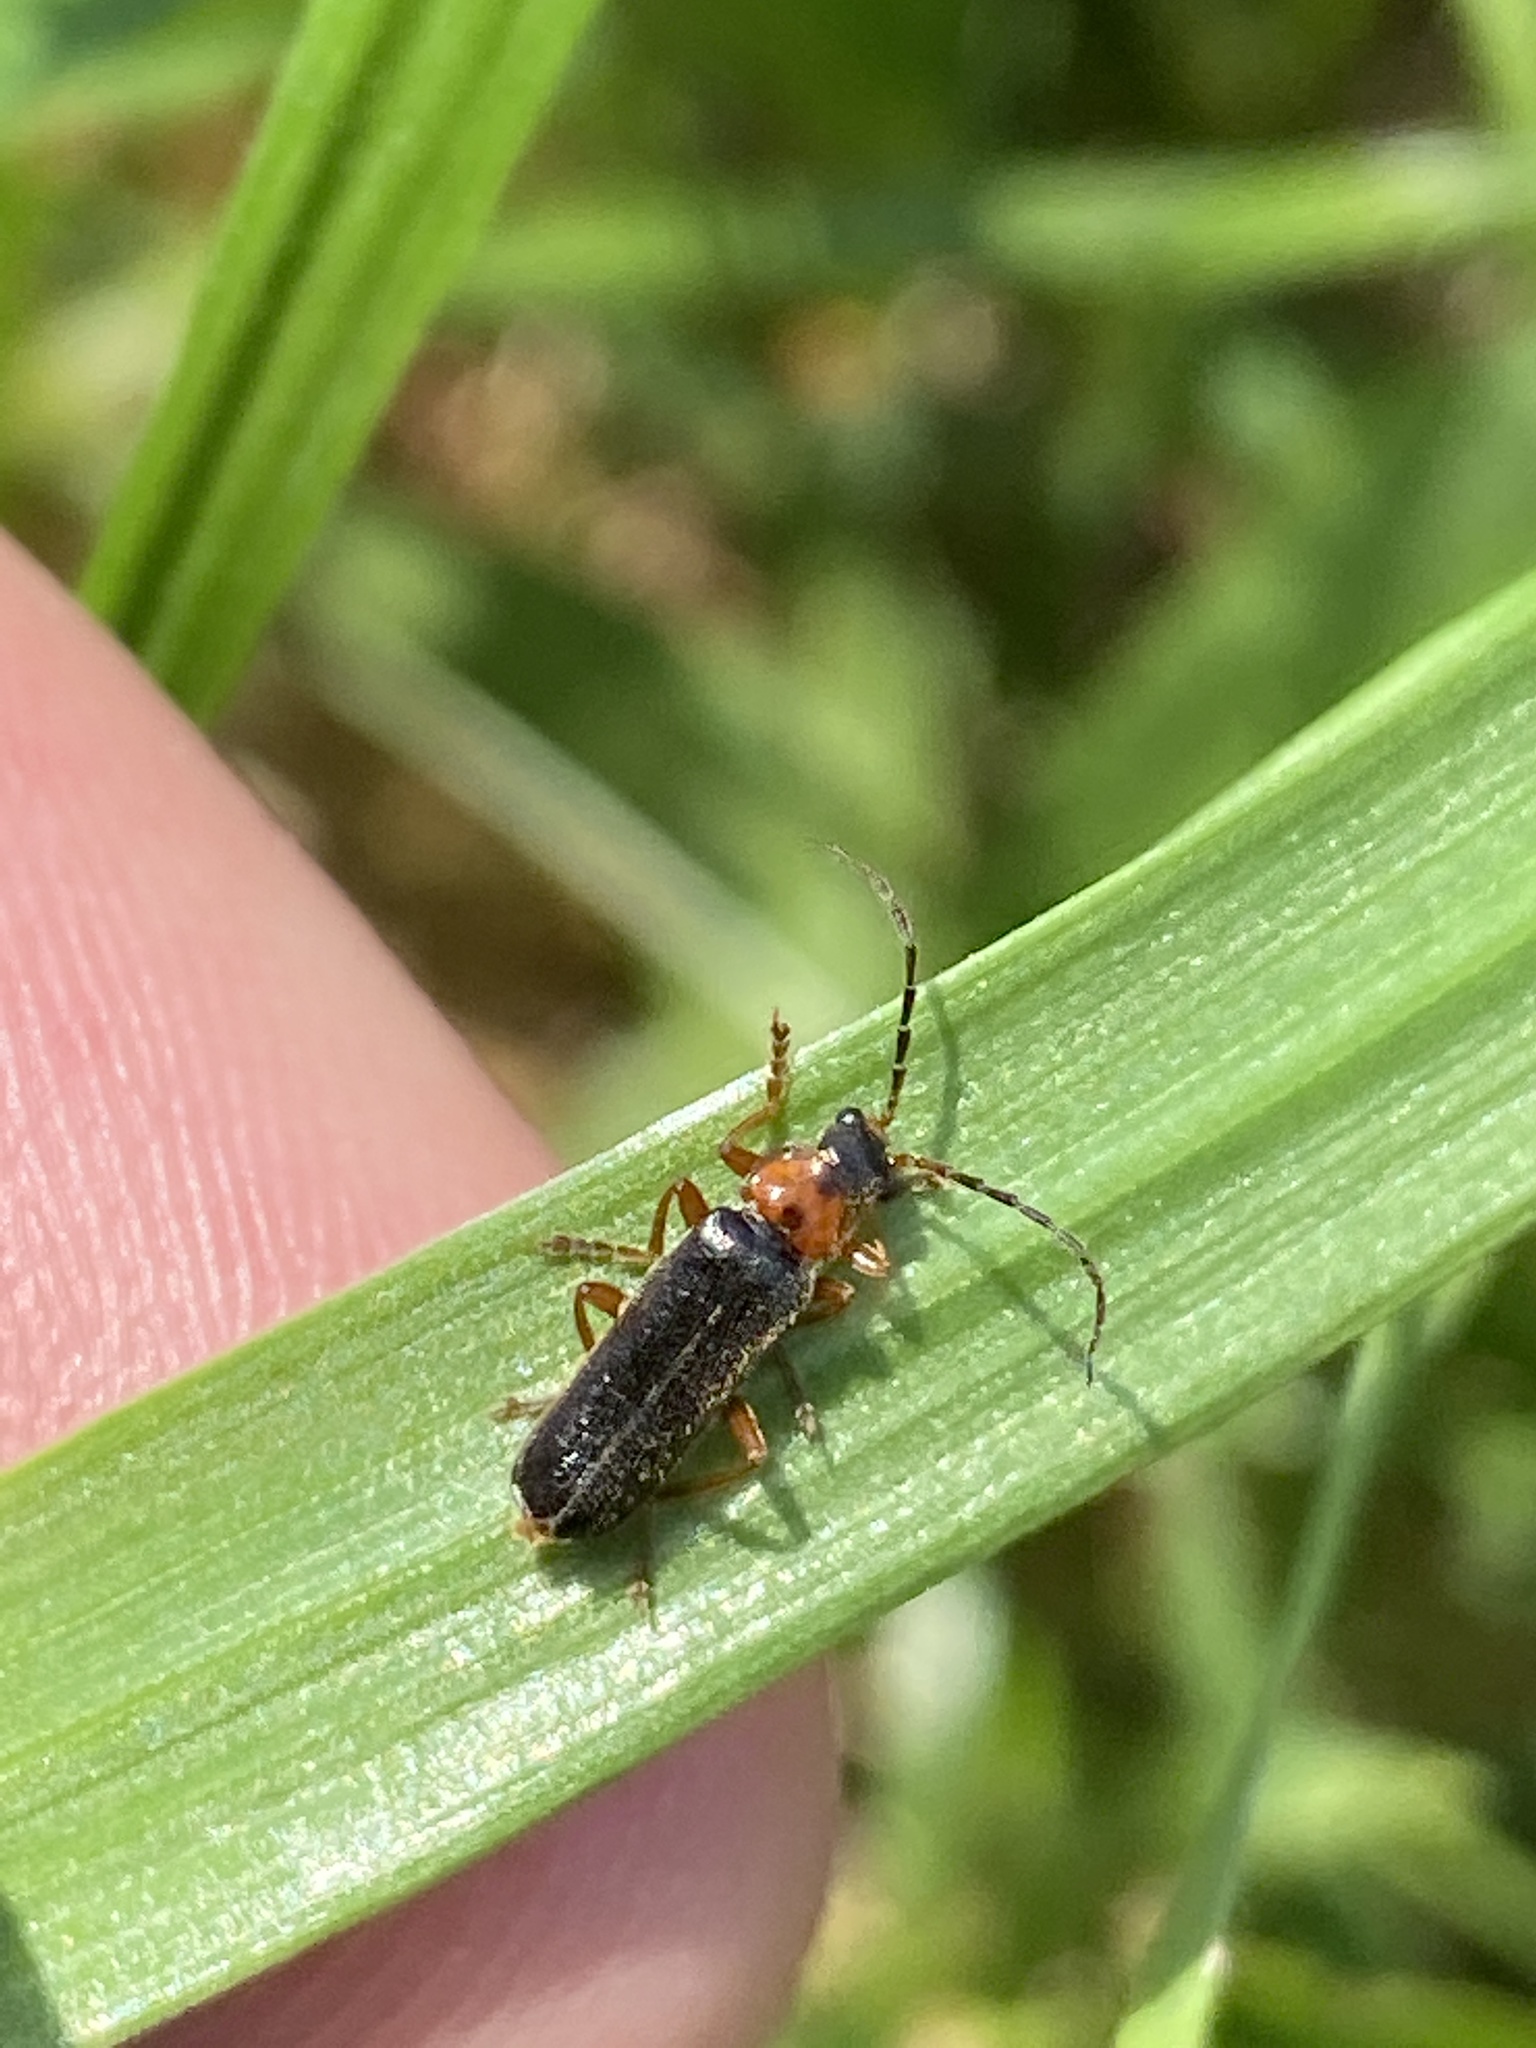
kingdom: Animalia
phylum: Arthropoda
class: Insecta
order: Coleoptera
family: Cantharidae
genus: Cantharis
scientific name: Cantharis flavilabris
